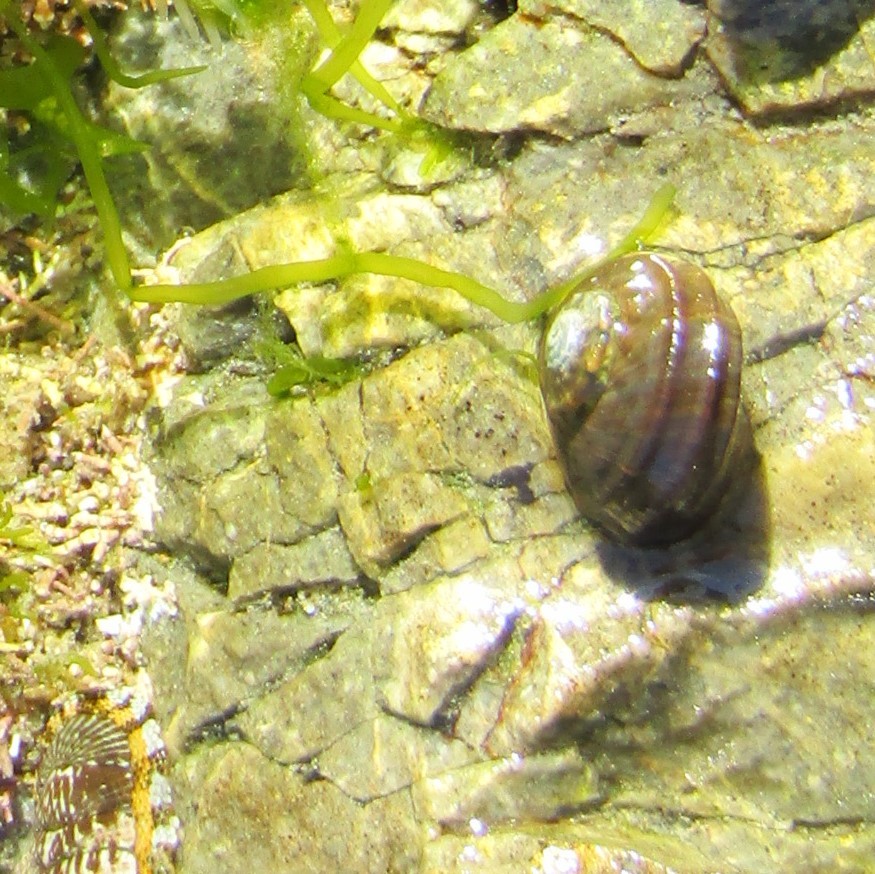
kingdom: Animalia
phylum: Mollusca
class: Gastropoda
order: Trochida
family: Turbinidae
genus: Lunella
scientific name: Lunella smaragda
